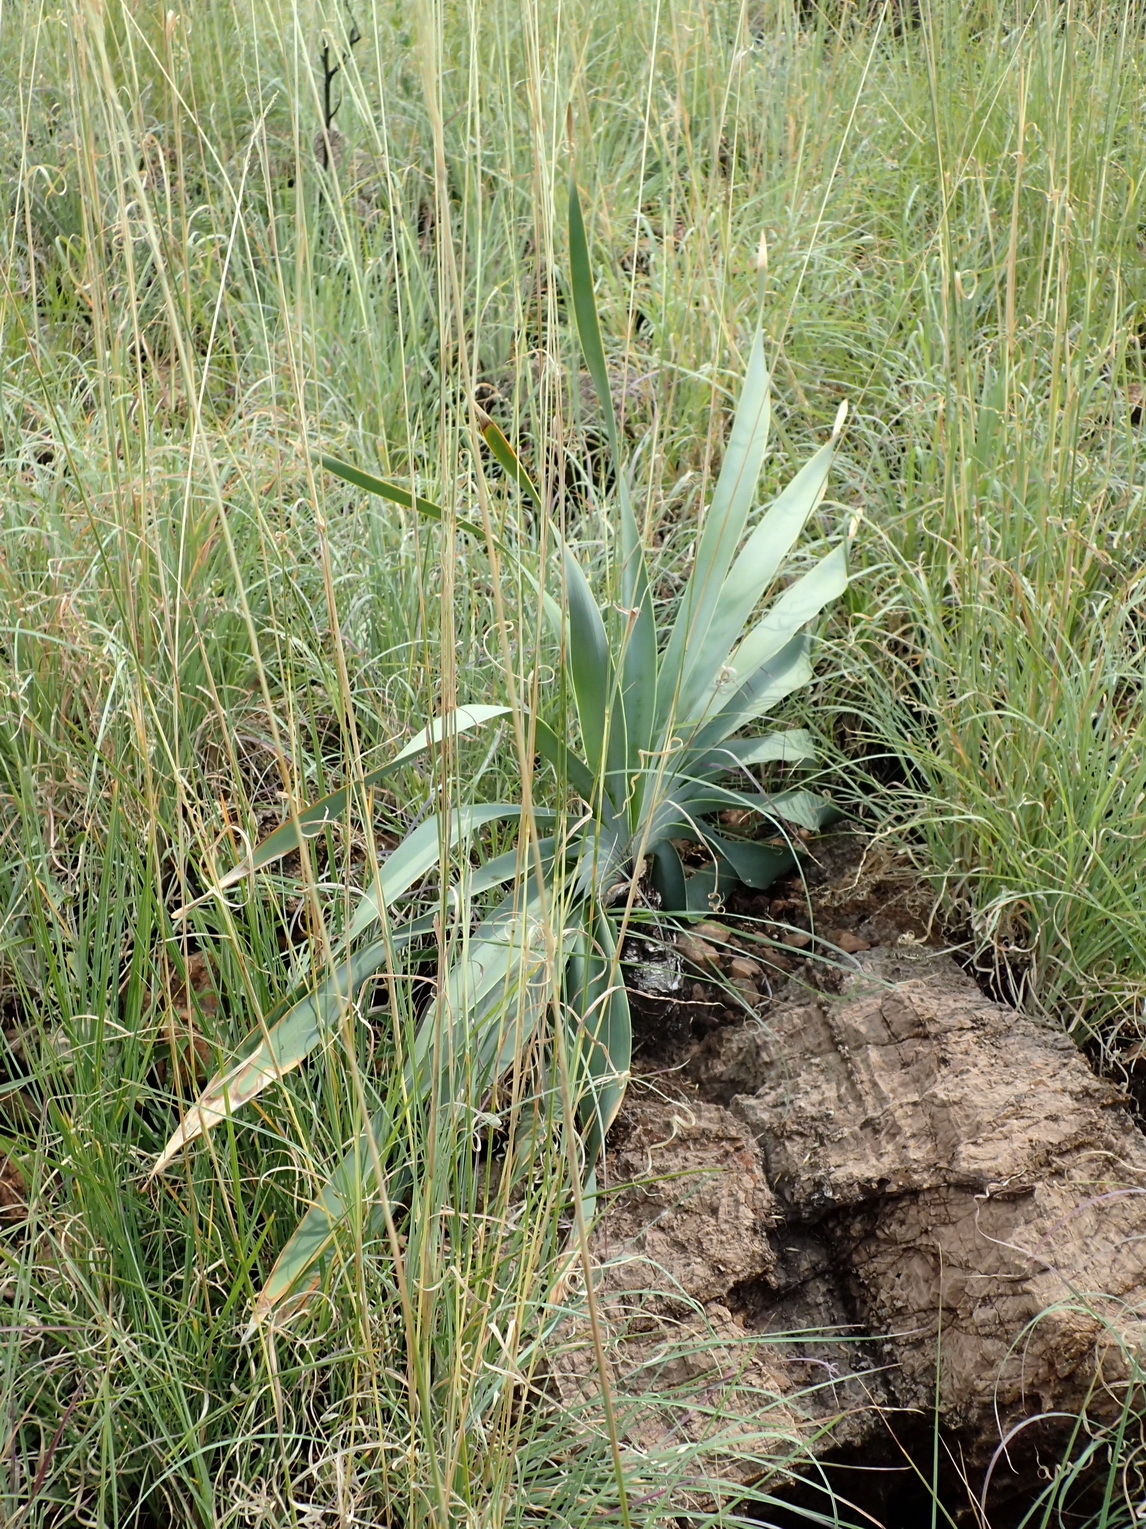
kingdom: Plantae
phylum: Tracheophyta
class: Liliopsida
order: Asparagales
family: Amaryllidaceae
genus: Boophone
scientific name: Boophone disticha
